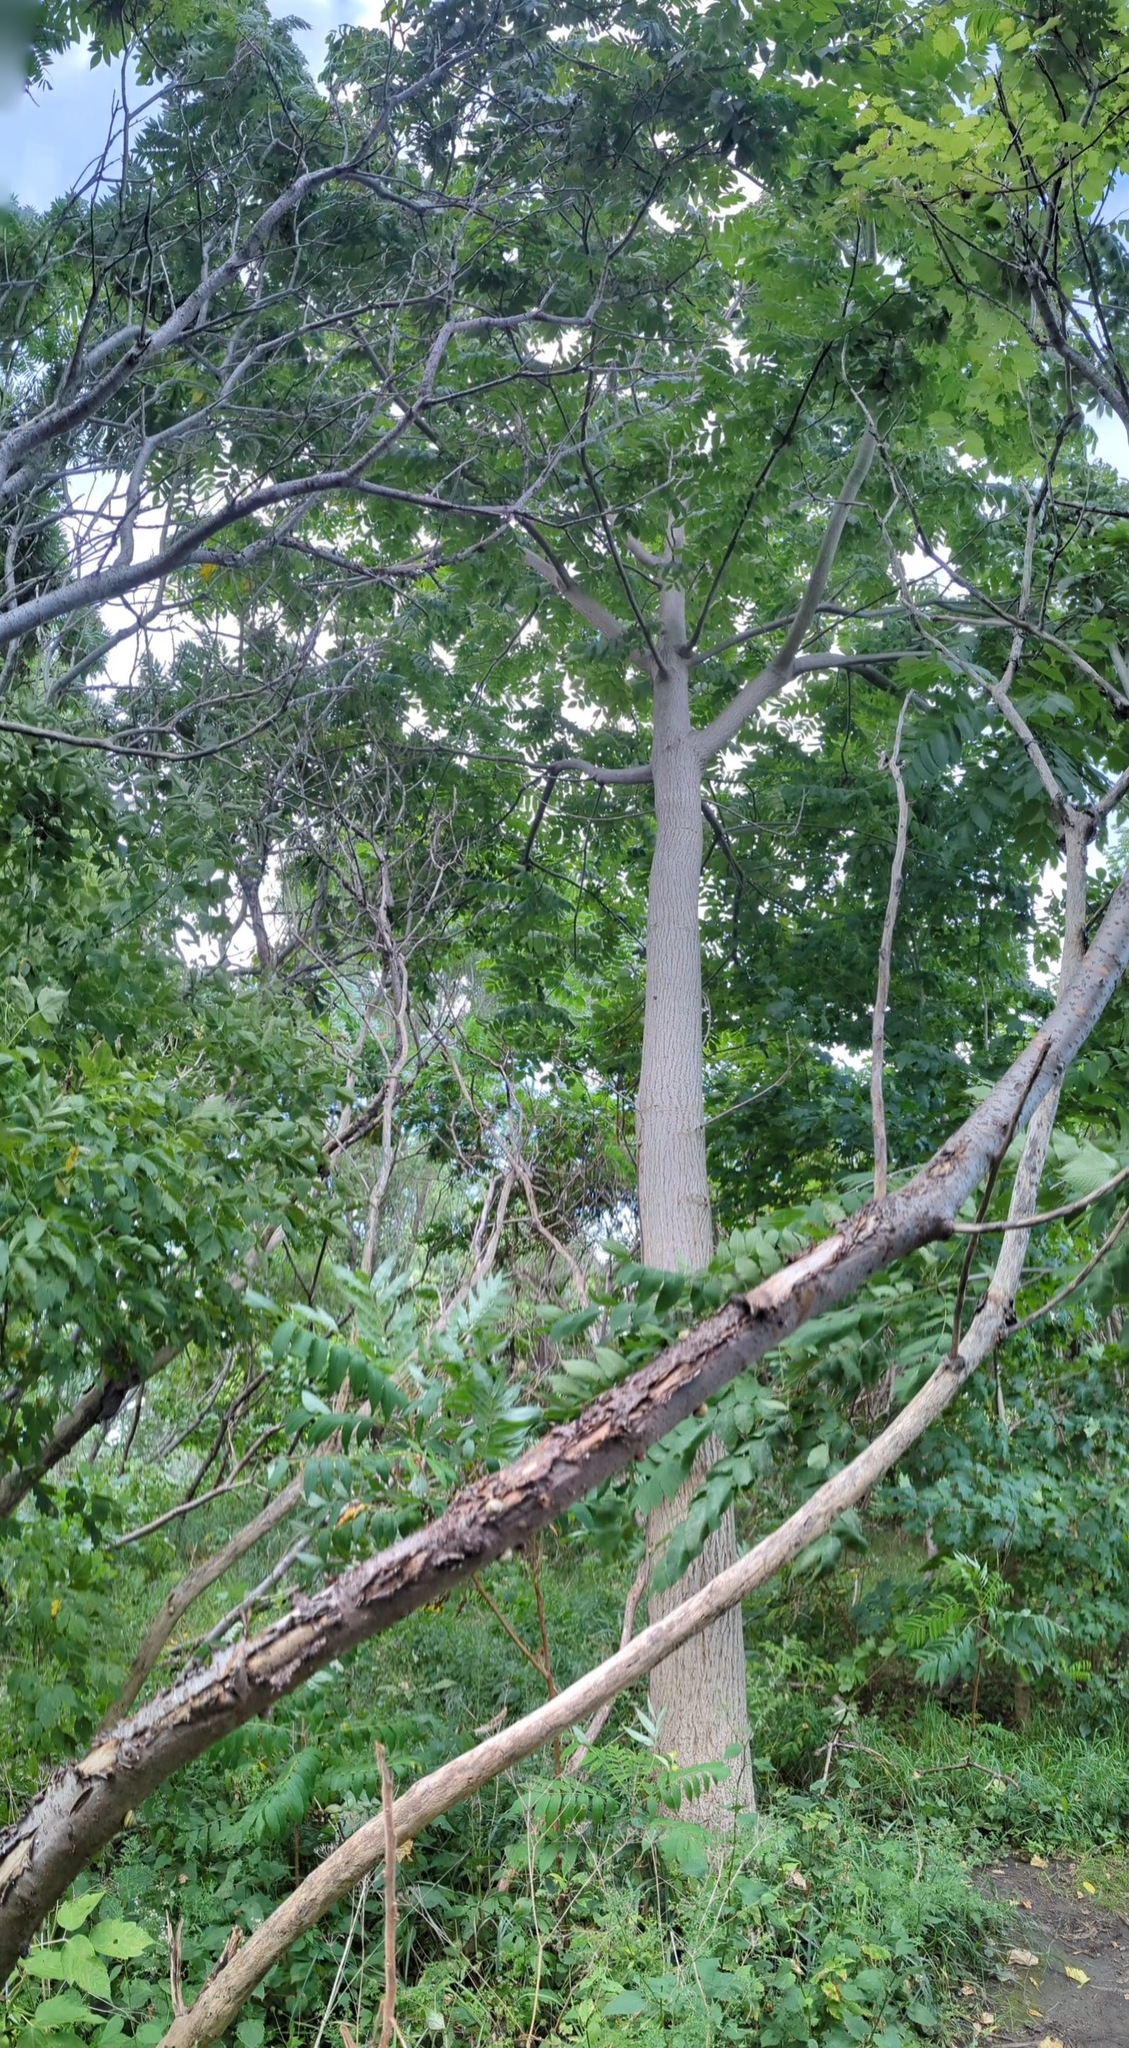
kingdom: Plantae
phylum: Tracheophyta
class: Magnoliopsida
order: Fagales
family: Juglandaceae
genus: Juglans
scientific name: Juglans cinerea
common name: Butternut
